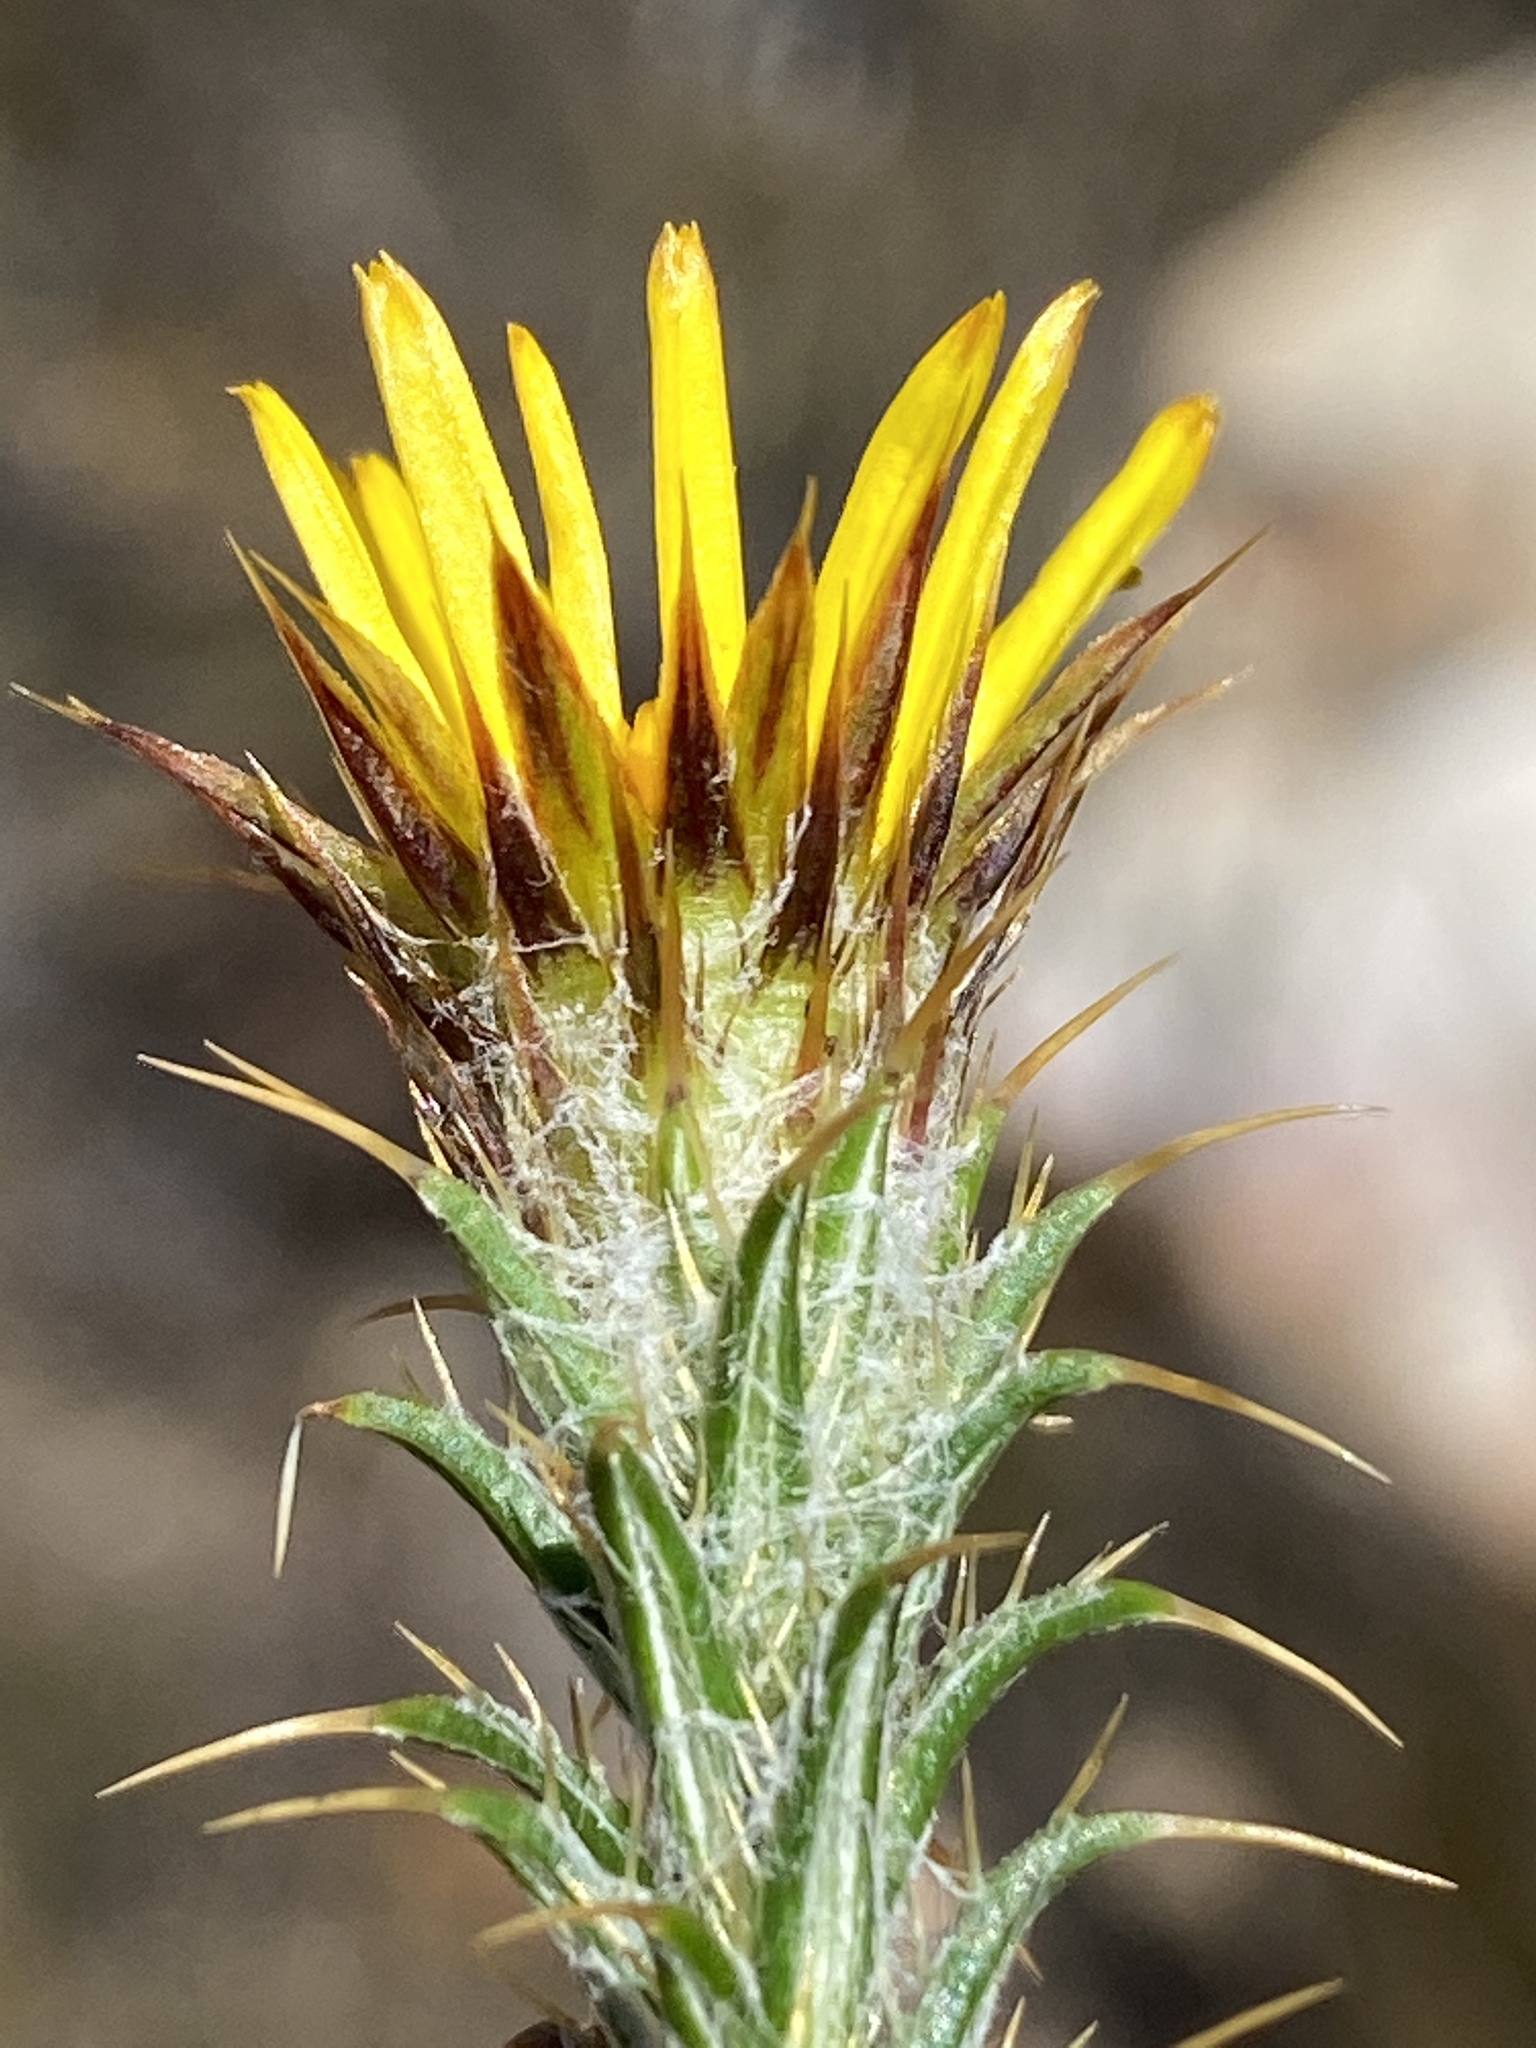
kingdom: Plantae
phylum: Tracheophyta
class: Magnoliopsida
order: Asterales
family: Asteraceae
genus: Cullumia
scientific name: Cullumia bisulca
